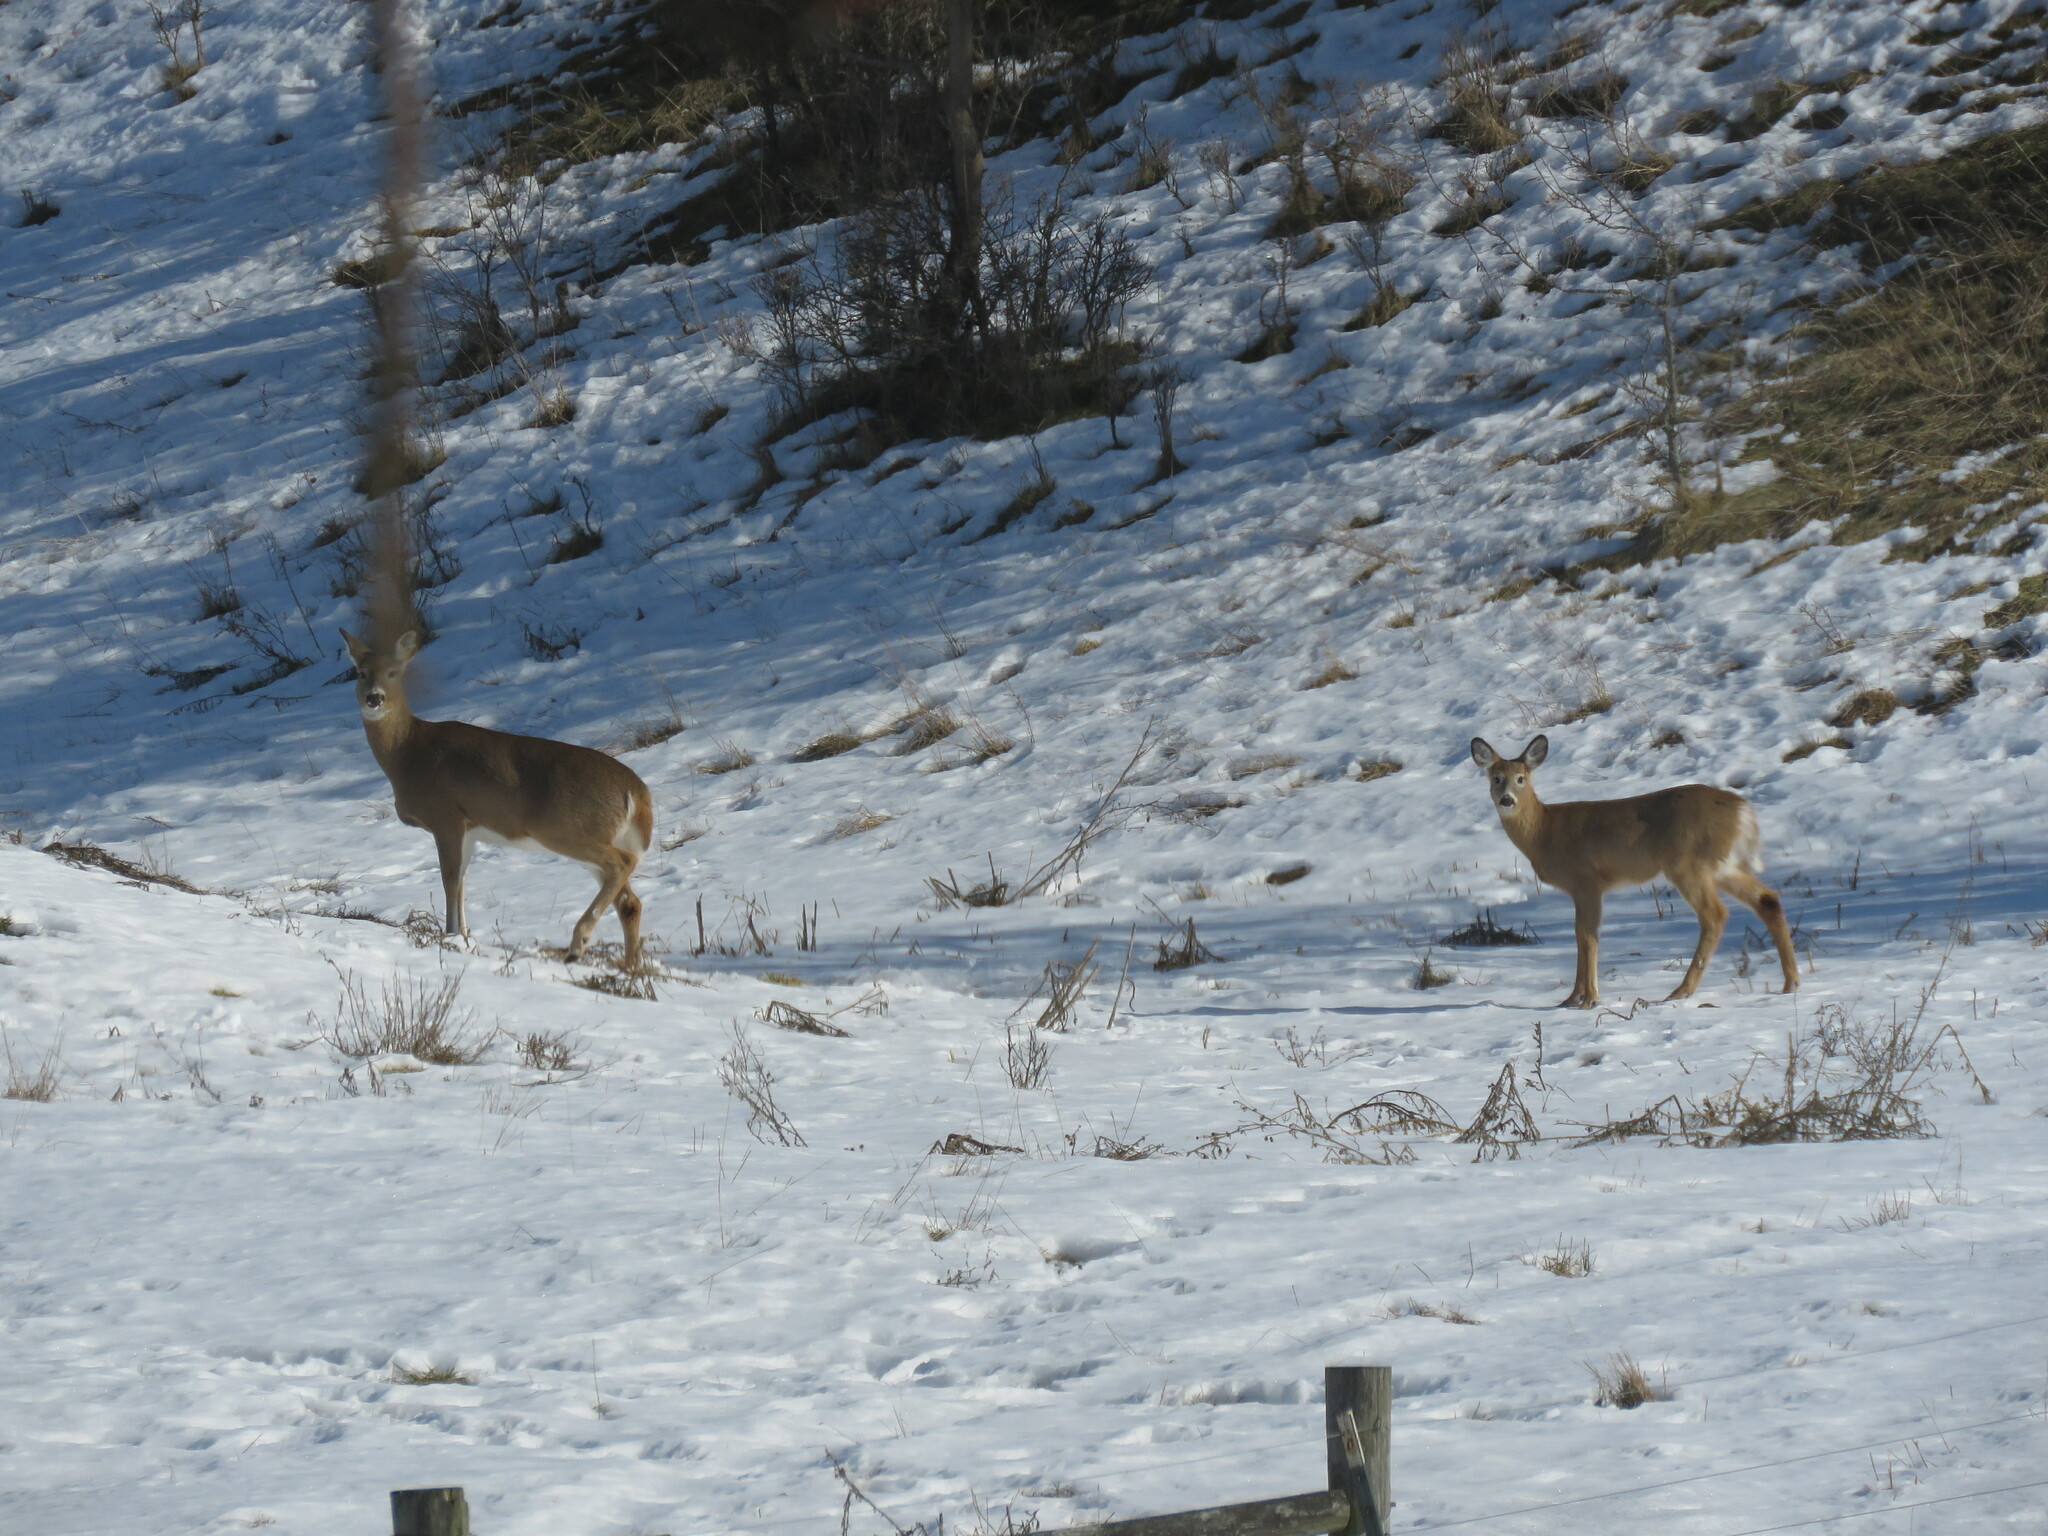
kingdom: Animalia
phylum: Chordata
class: Mammalia
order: Artiodactyla
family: Cervidae
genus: Odocoileus
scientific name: Odocoileus virginianus
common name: White-tailed deer
